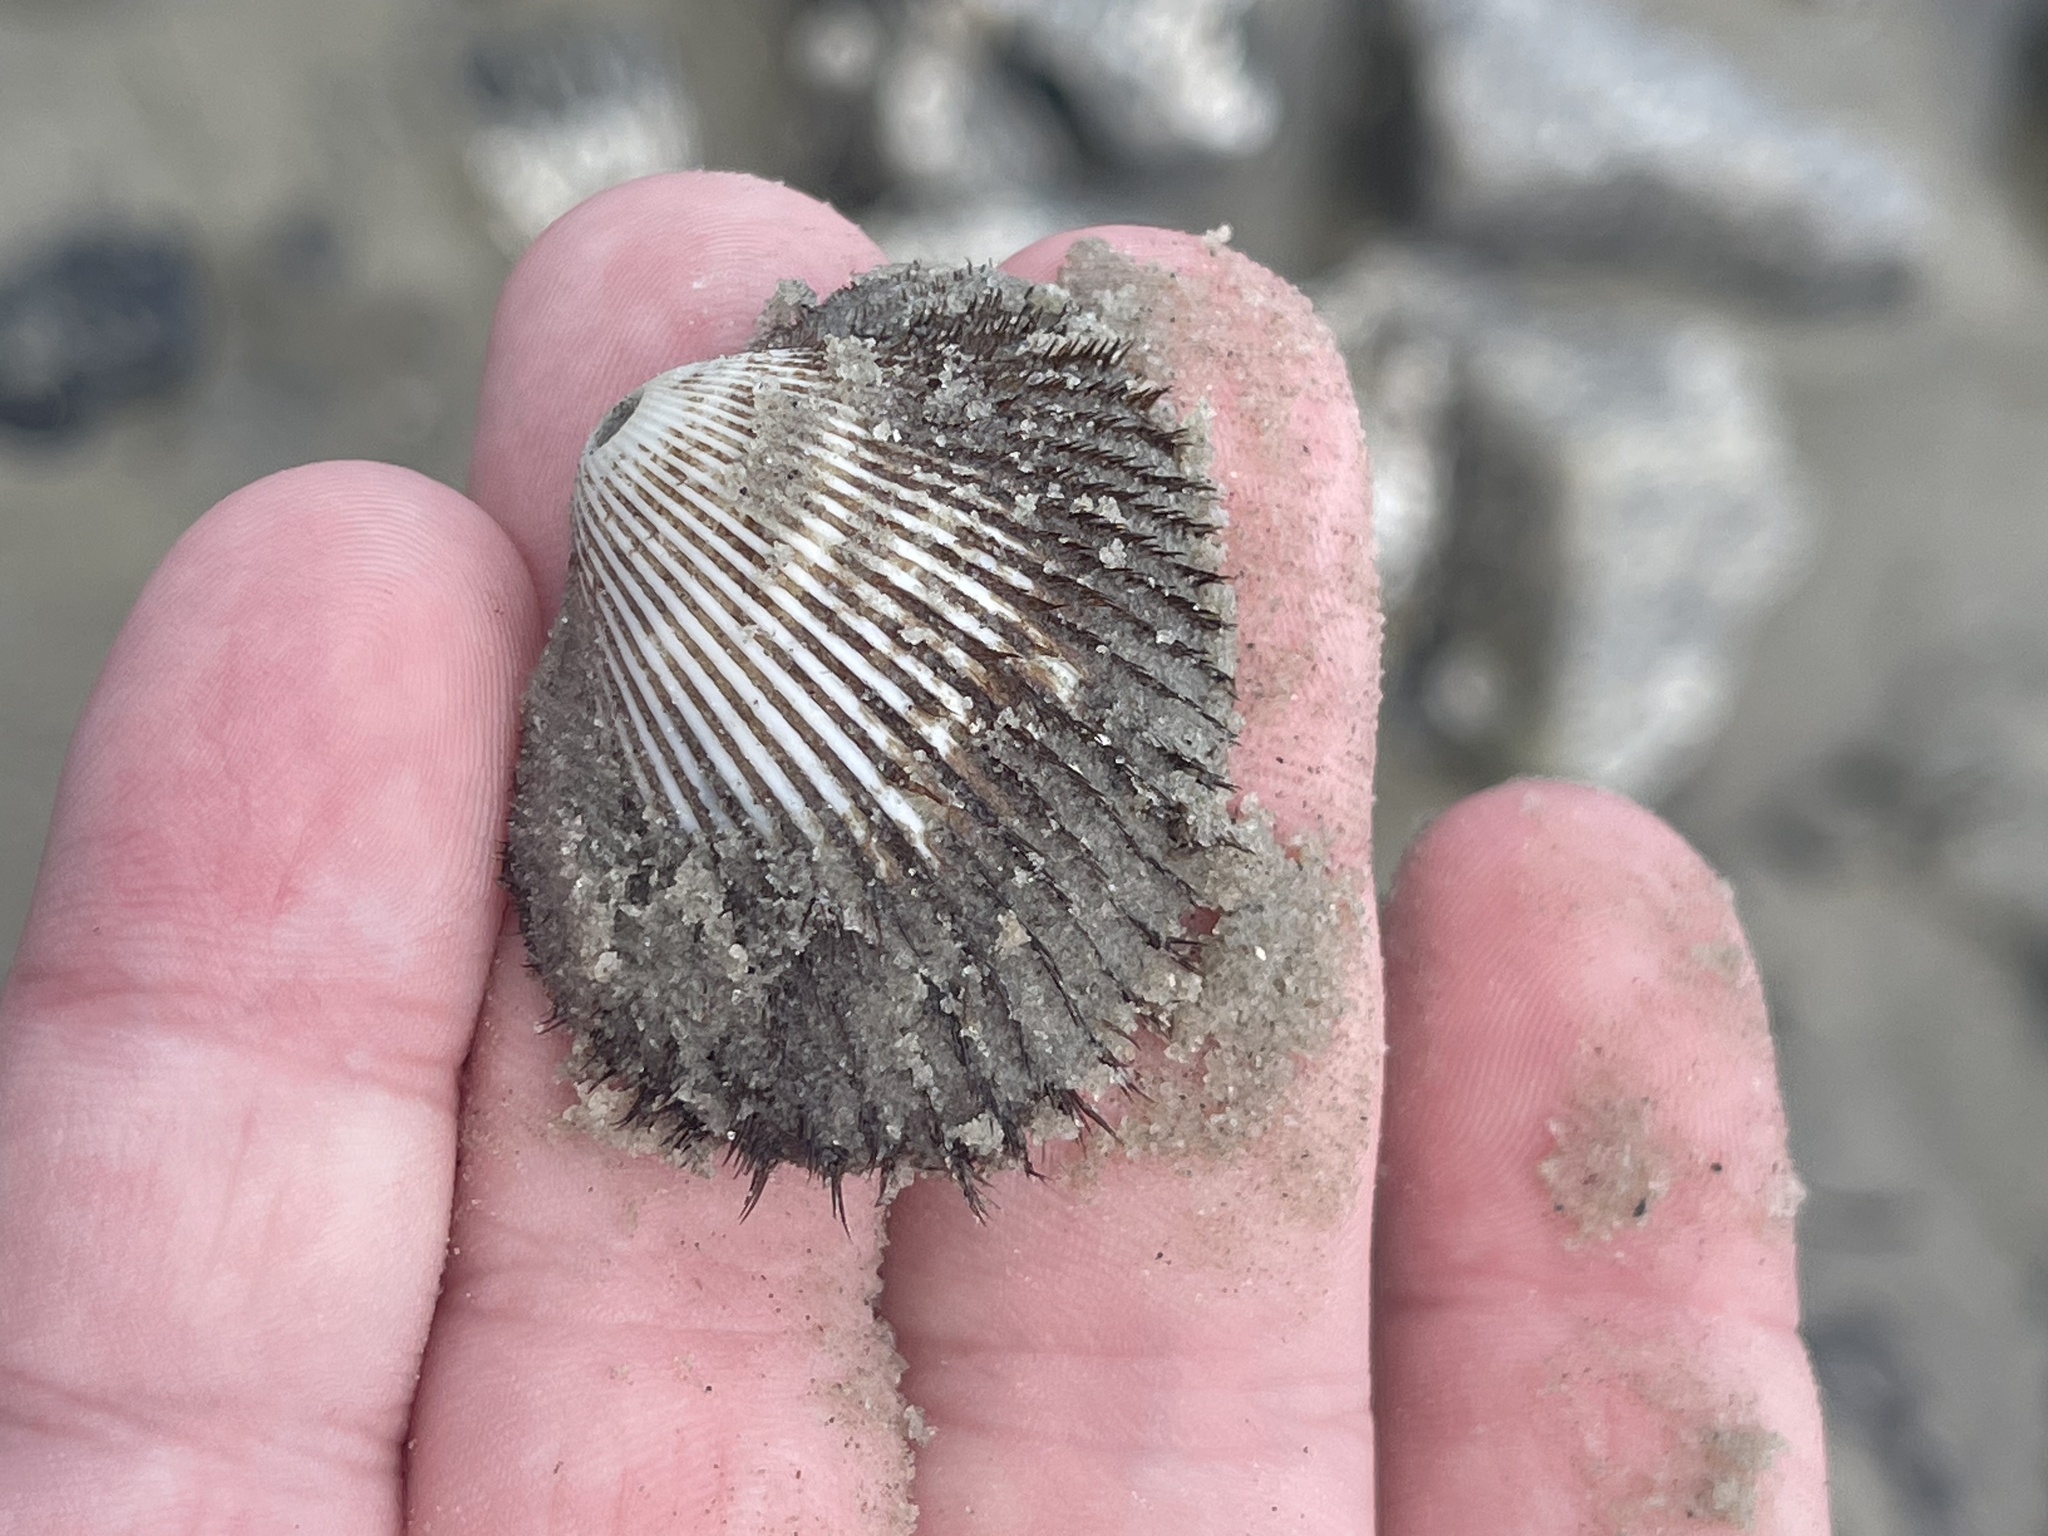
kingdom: Animalia
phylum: Mollusca
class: Bivalvia
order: Arcida
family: Arcidae
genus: Lunarca
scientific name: Lunarca ovalis
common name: Blood ark
